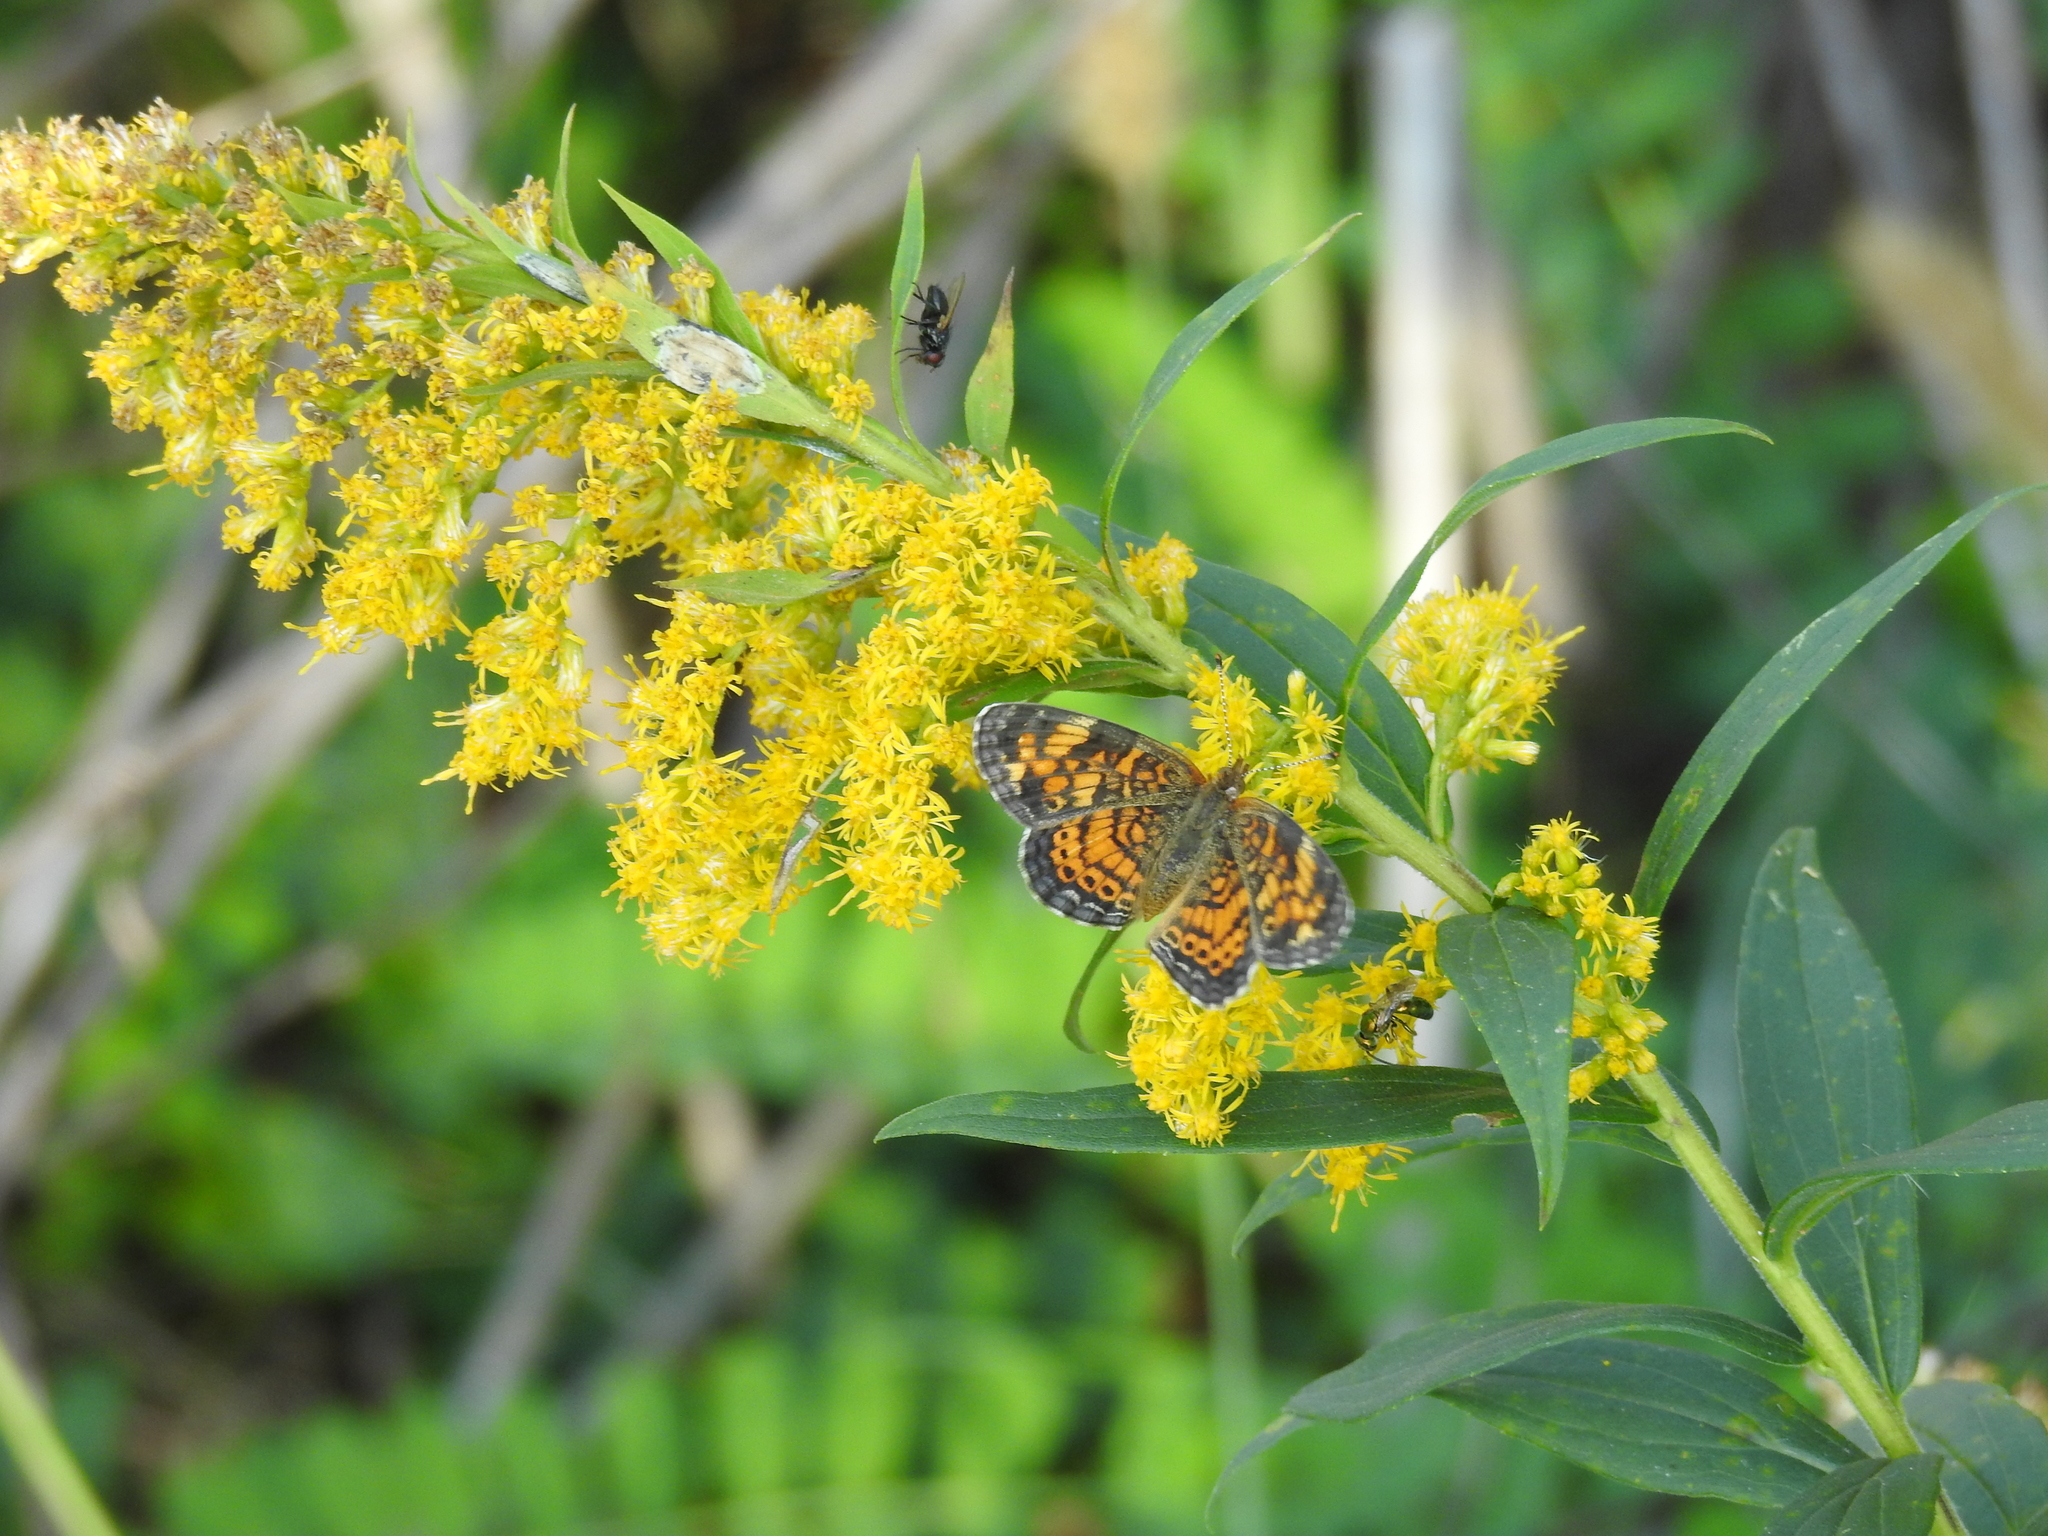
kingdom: Animalia
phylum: Arthropoda
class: Insecta
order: Lepidoptera
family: Nymphalidae
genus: Phyciodes
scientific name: Phyciodes tharos
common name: Pearl crescent
